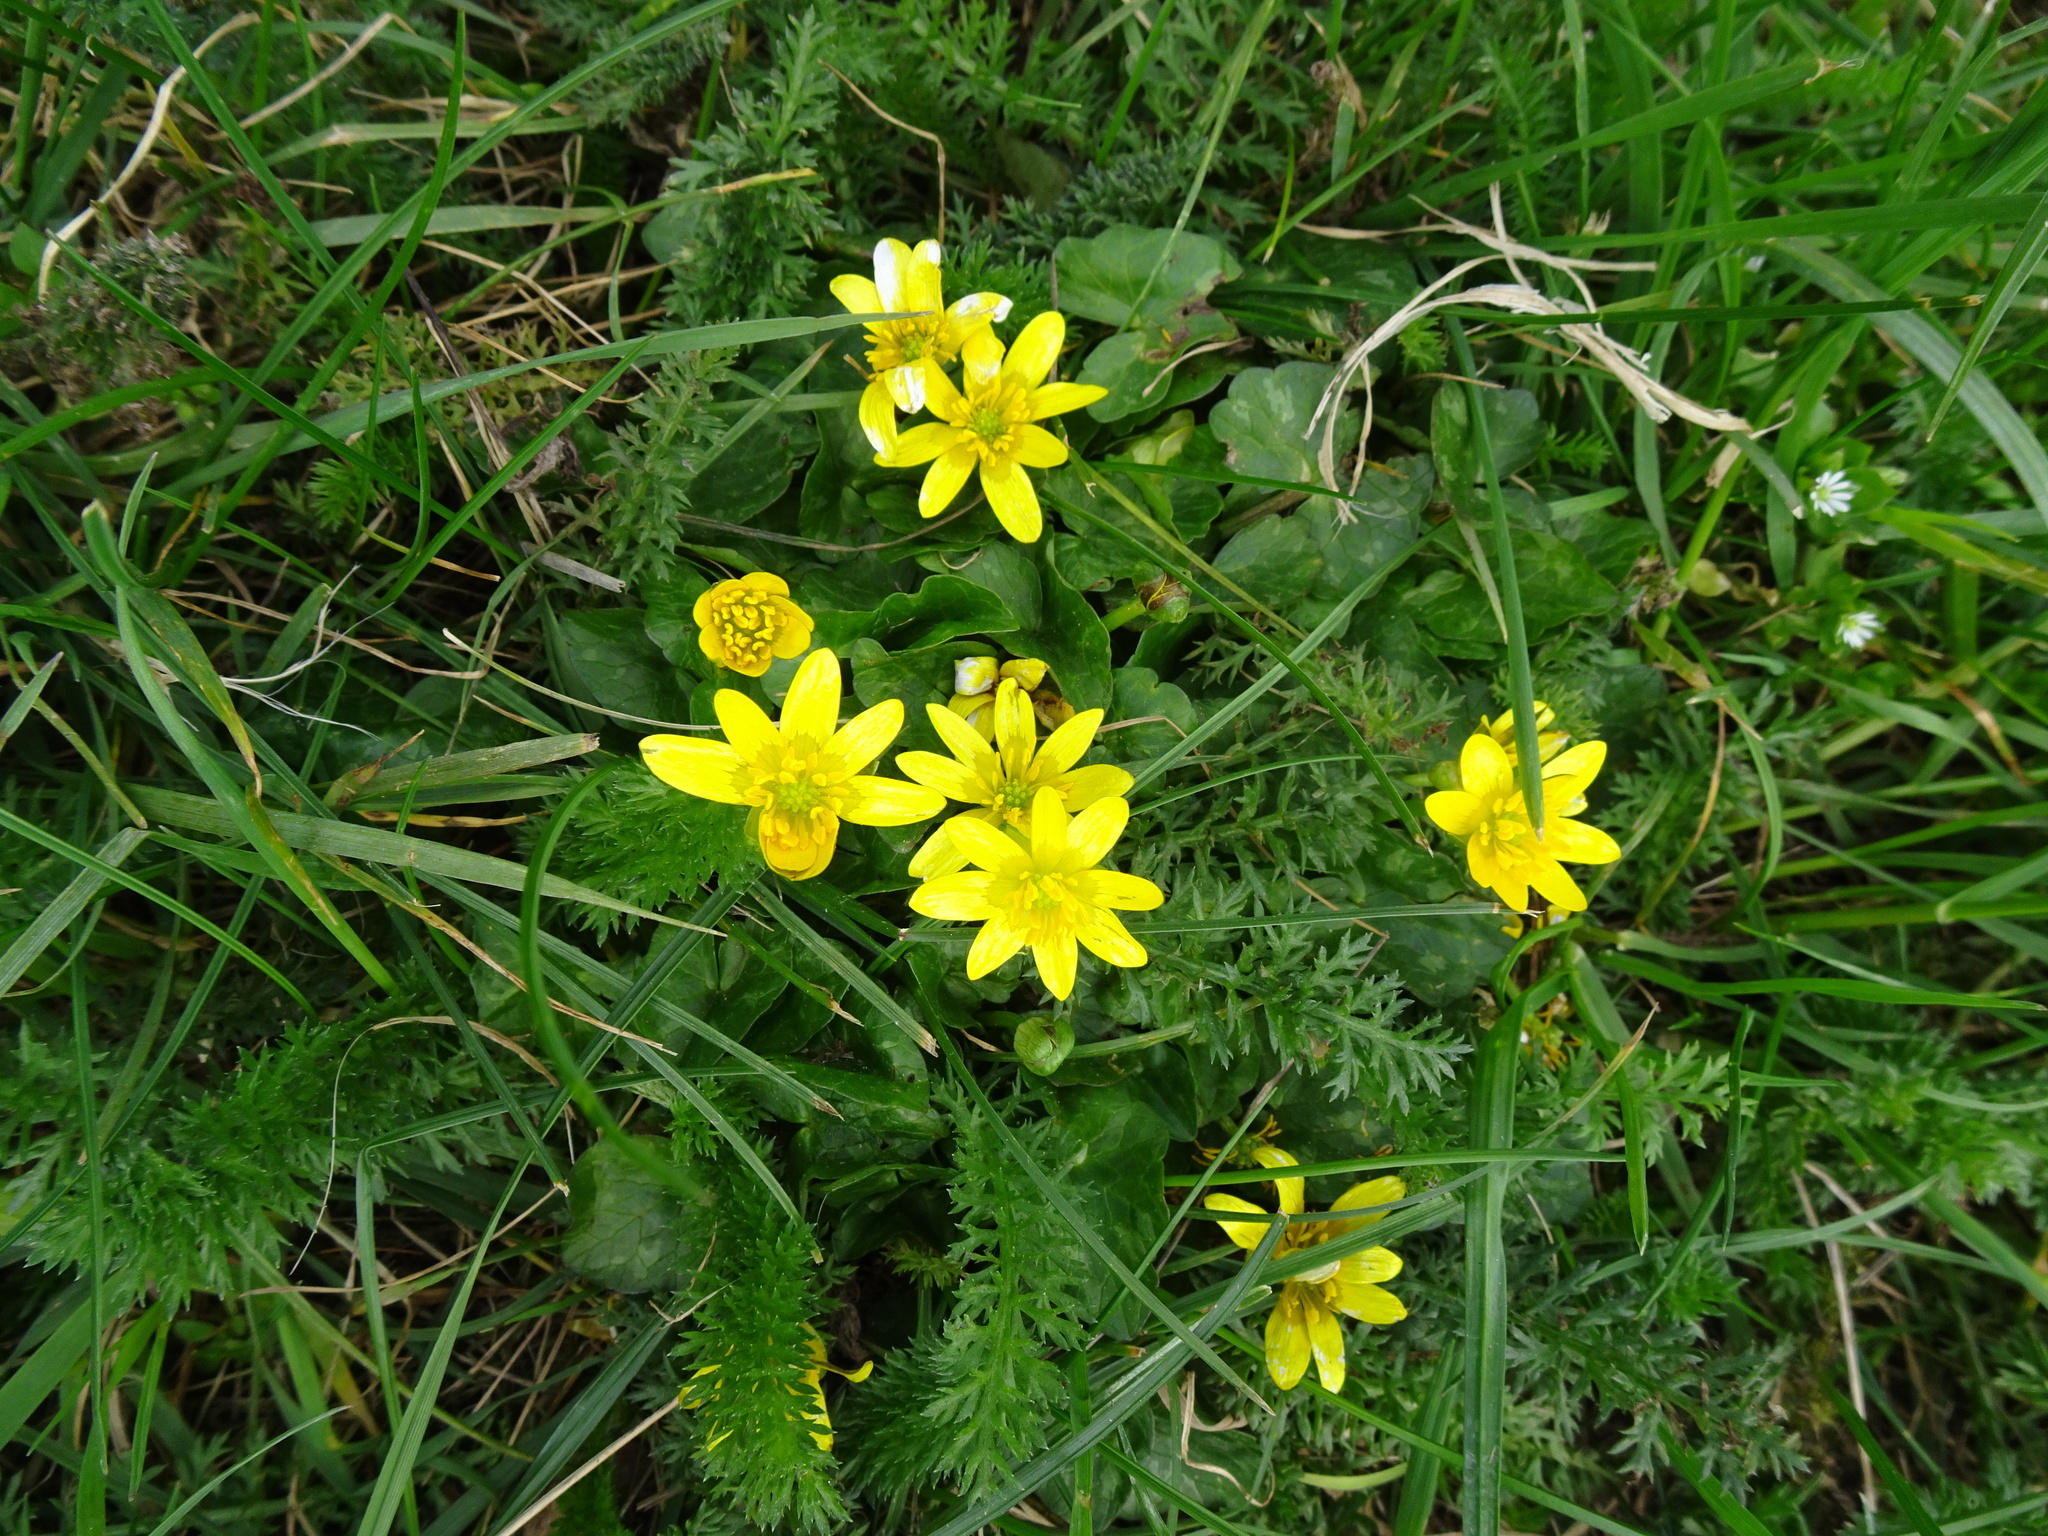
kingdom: Plantae
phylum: Tracheophyta
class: Magnoliopsida
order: Ranunculales
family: Ranunculaceae
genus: Ficaria
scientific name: Ficaria verna
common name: Lesser celandine
